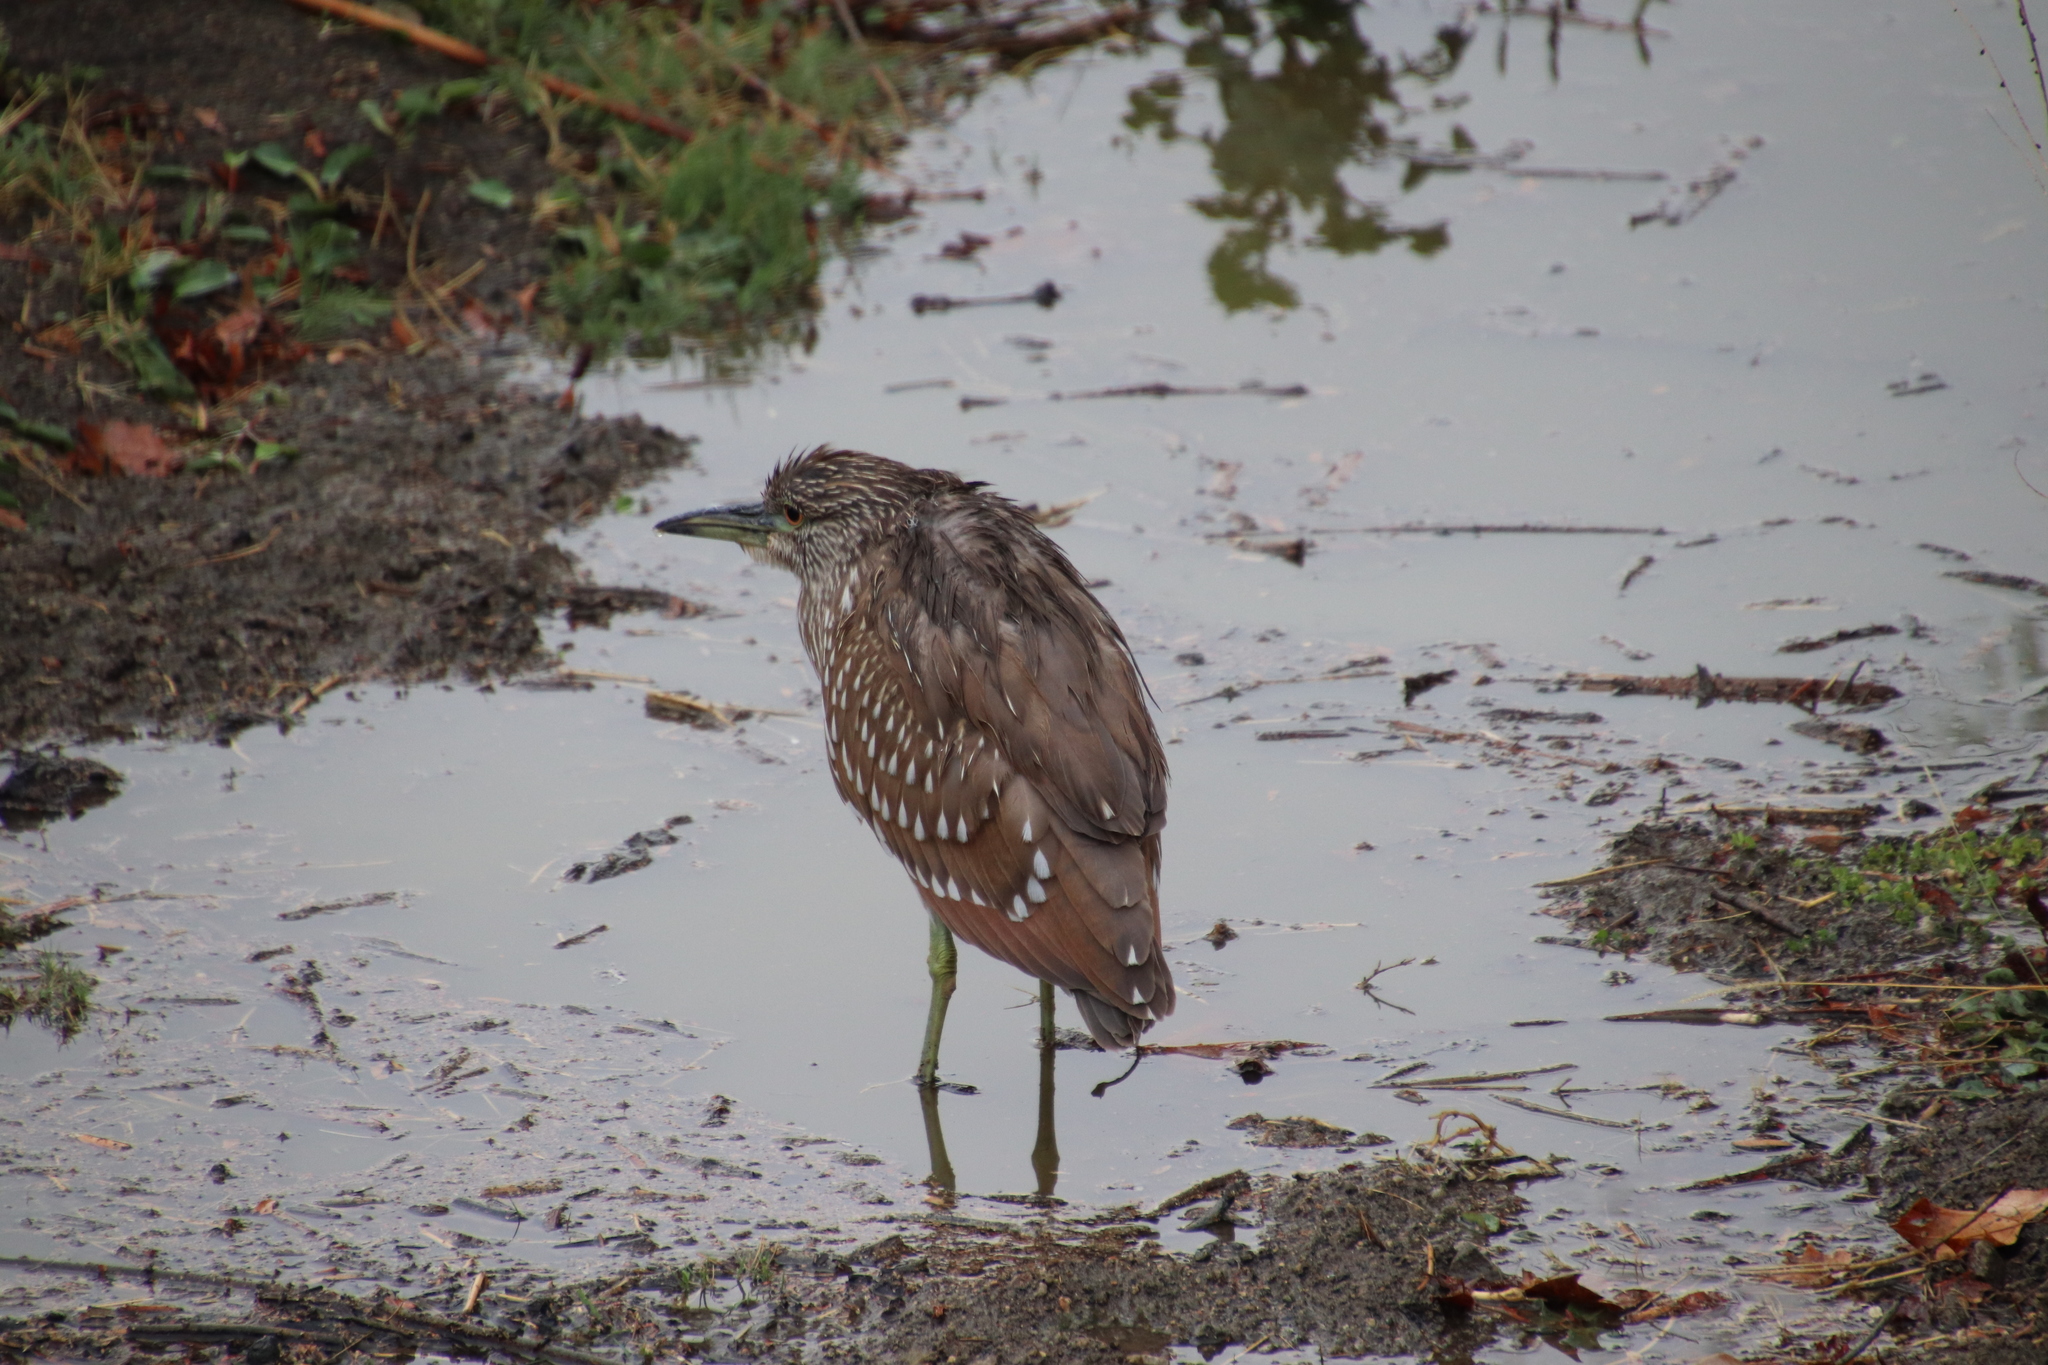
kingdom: Animalia
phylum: Chordata
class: Aves
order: Pelecaniformes
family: Ardeidae
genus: Nycticorax
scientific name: Nycticorax nycticorax
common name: Black-crowned night heron
